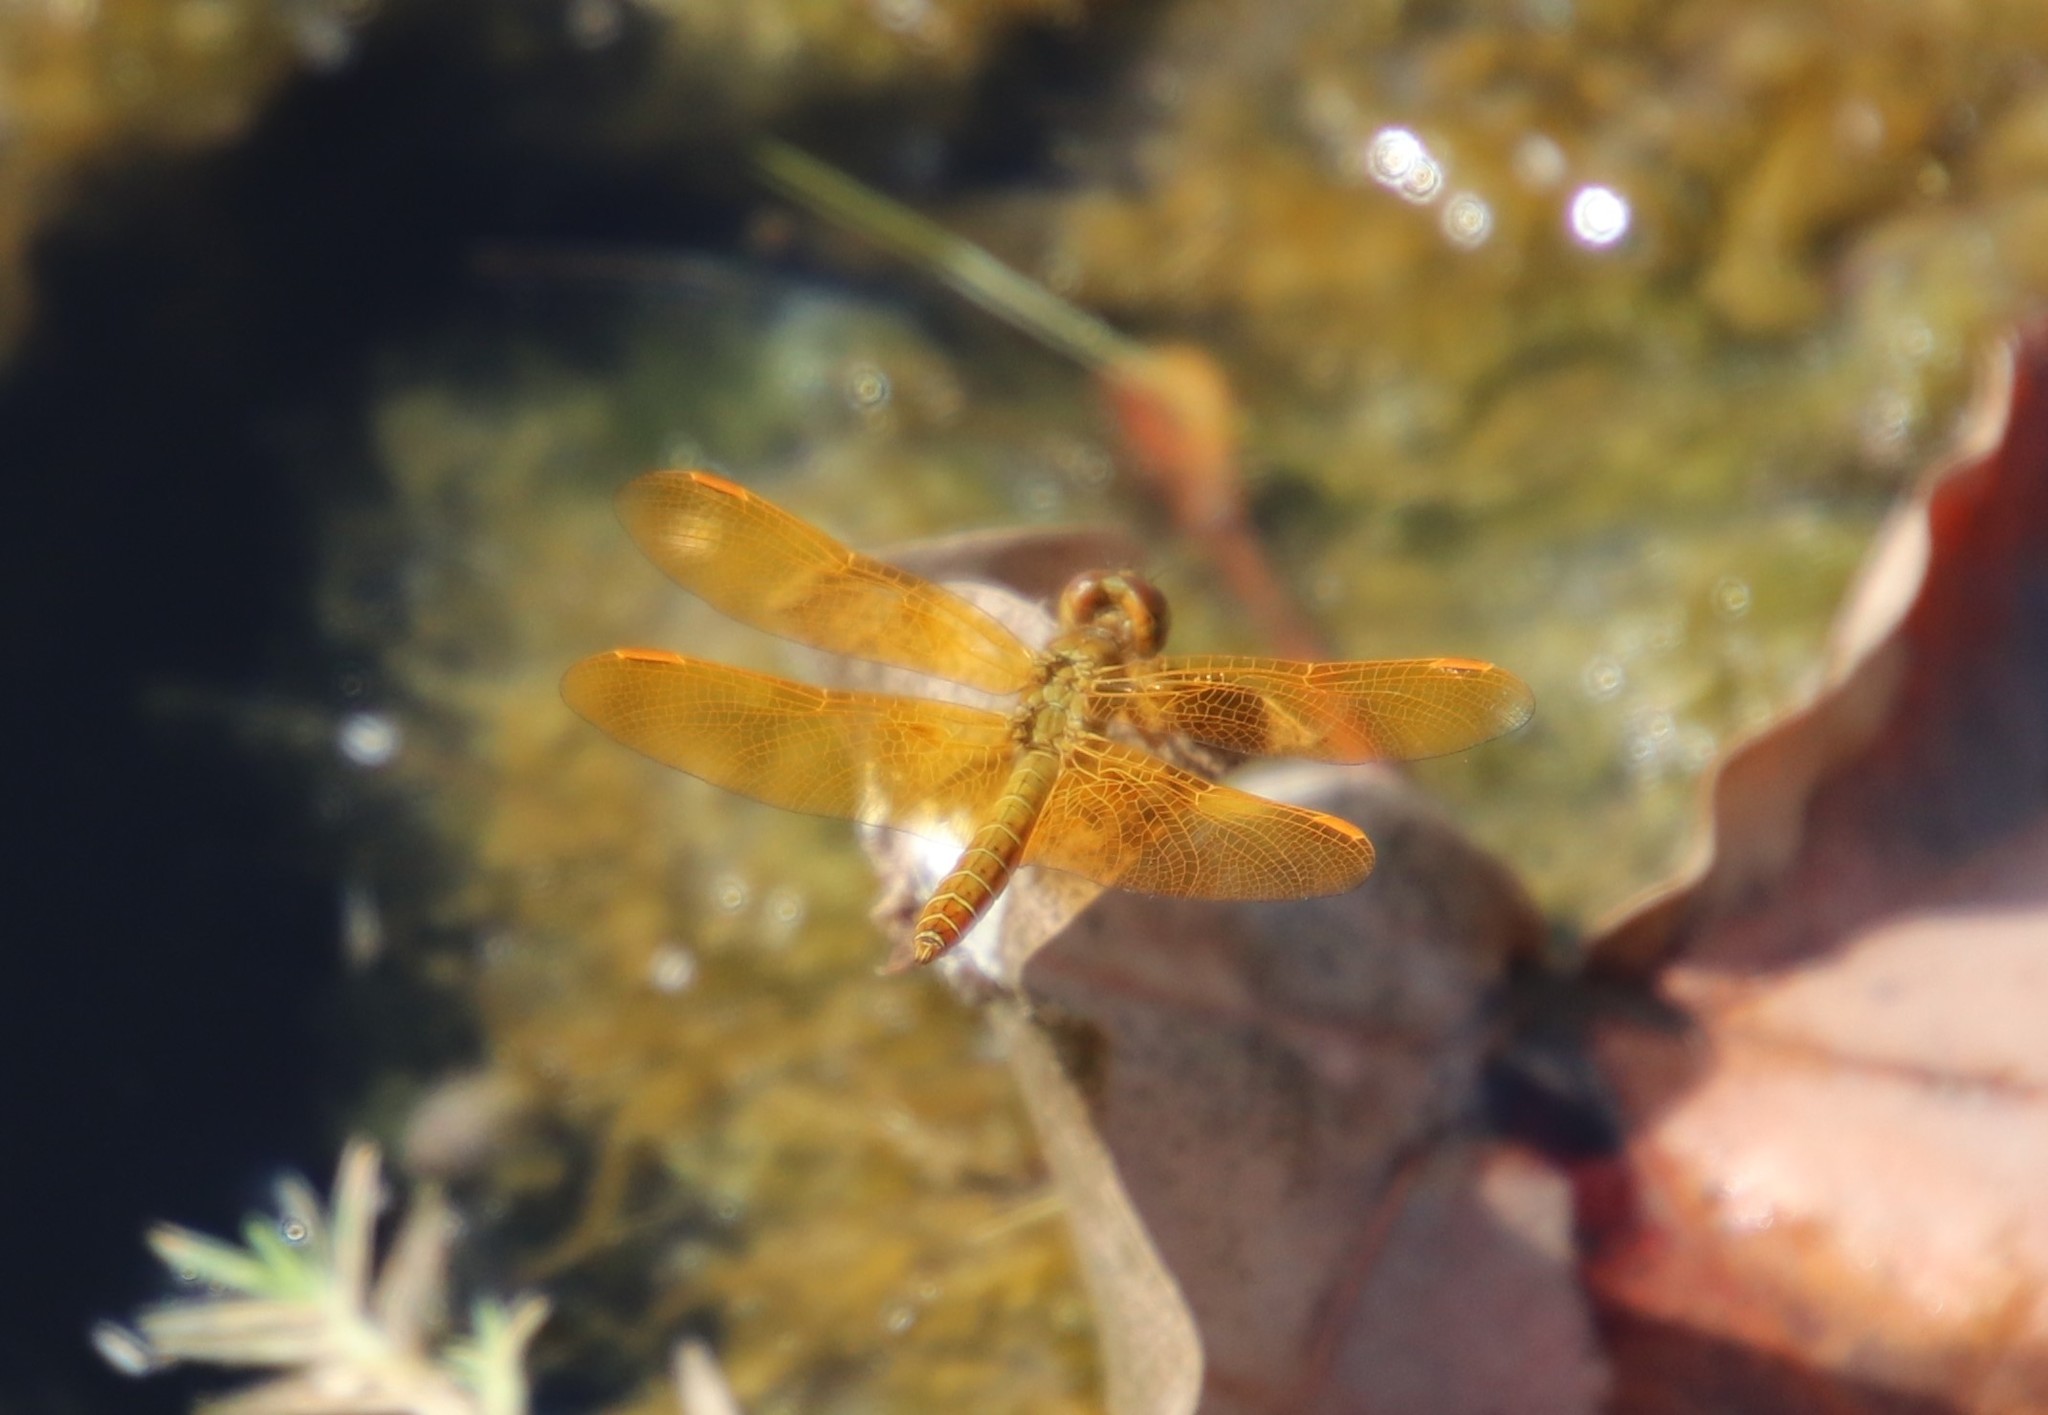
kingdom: Animalia
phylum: Arthropoda
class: Insecta
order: Odonata
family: Libellulidae
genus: Perithemis
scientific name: Perithemis intensa
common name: Mexican amberwing
